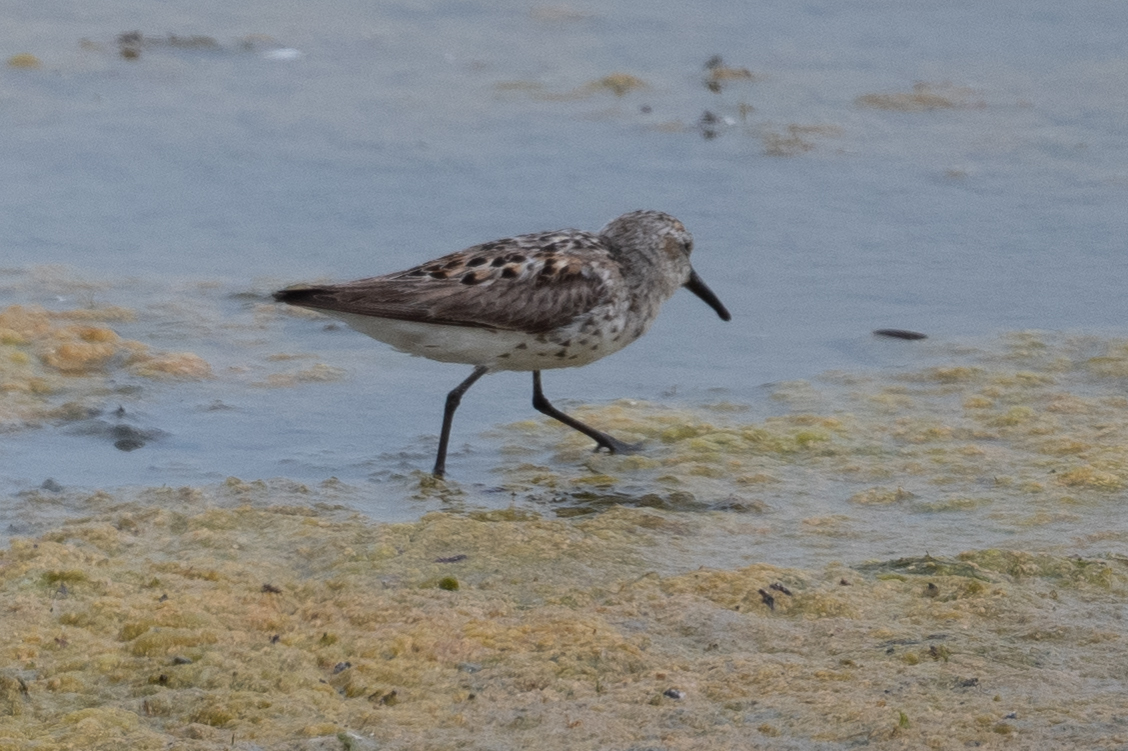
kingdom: Animalia
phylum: Chordata
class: Aves
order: Charadriiformes
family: Scolopacidae
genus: Calidris
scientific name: Calidris mauri
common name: Western sandpiper
